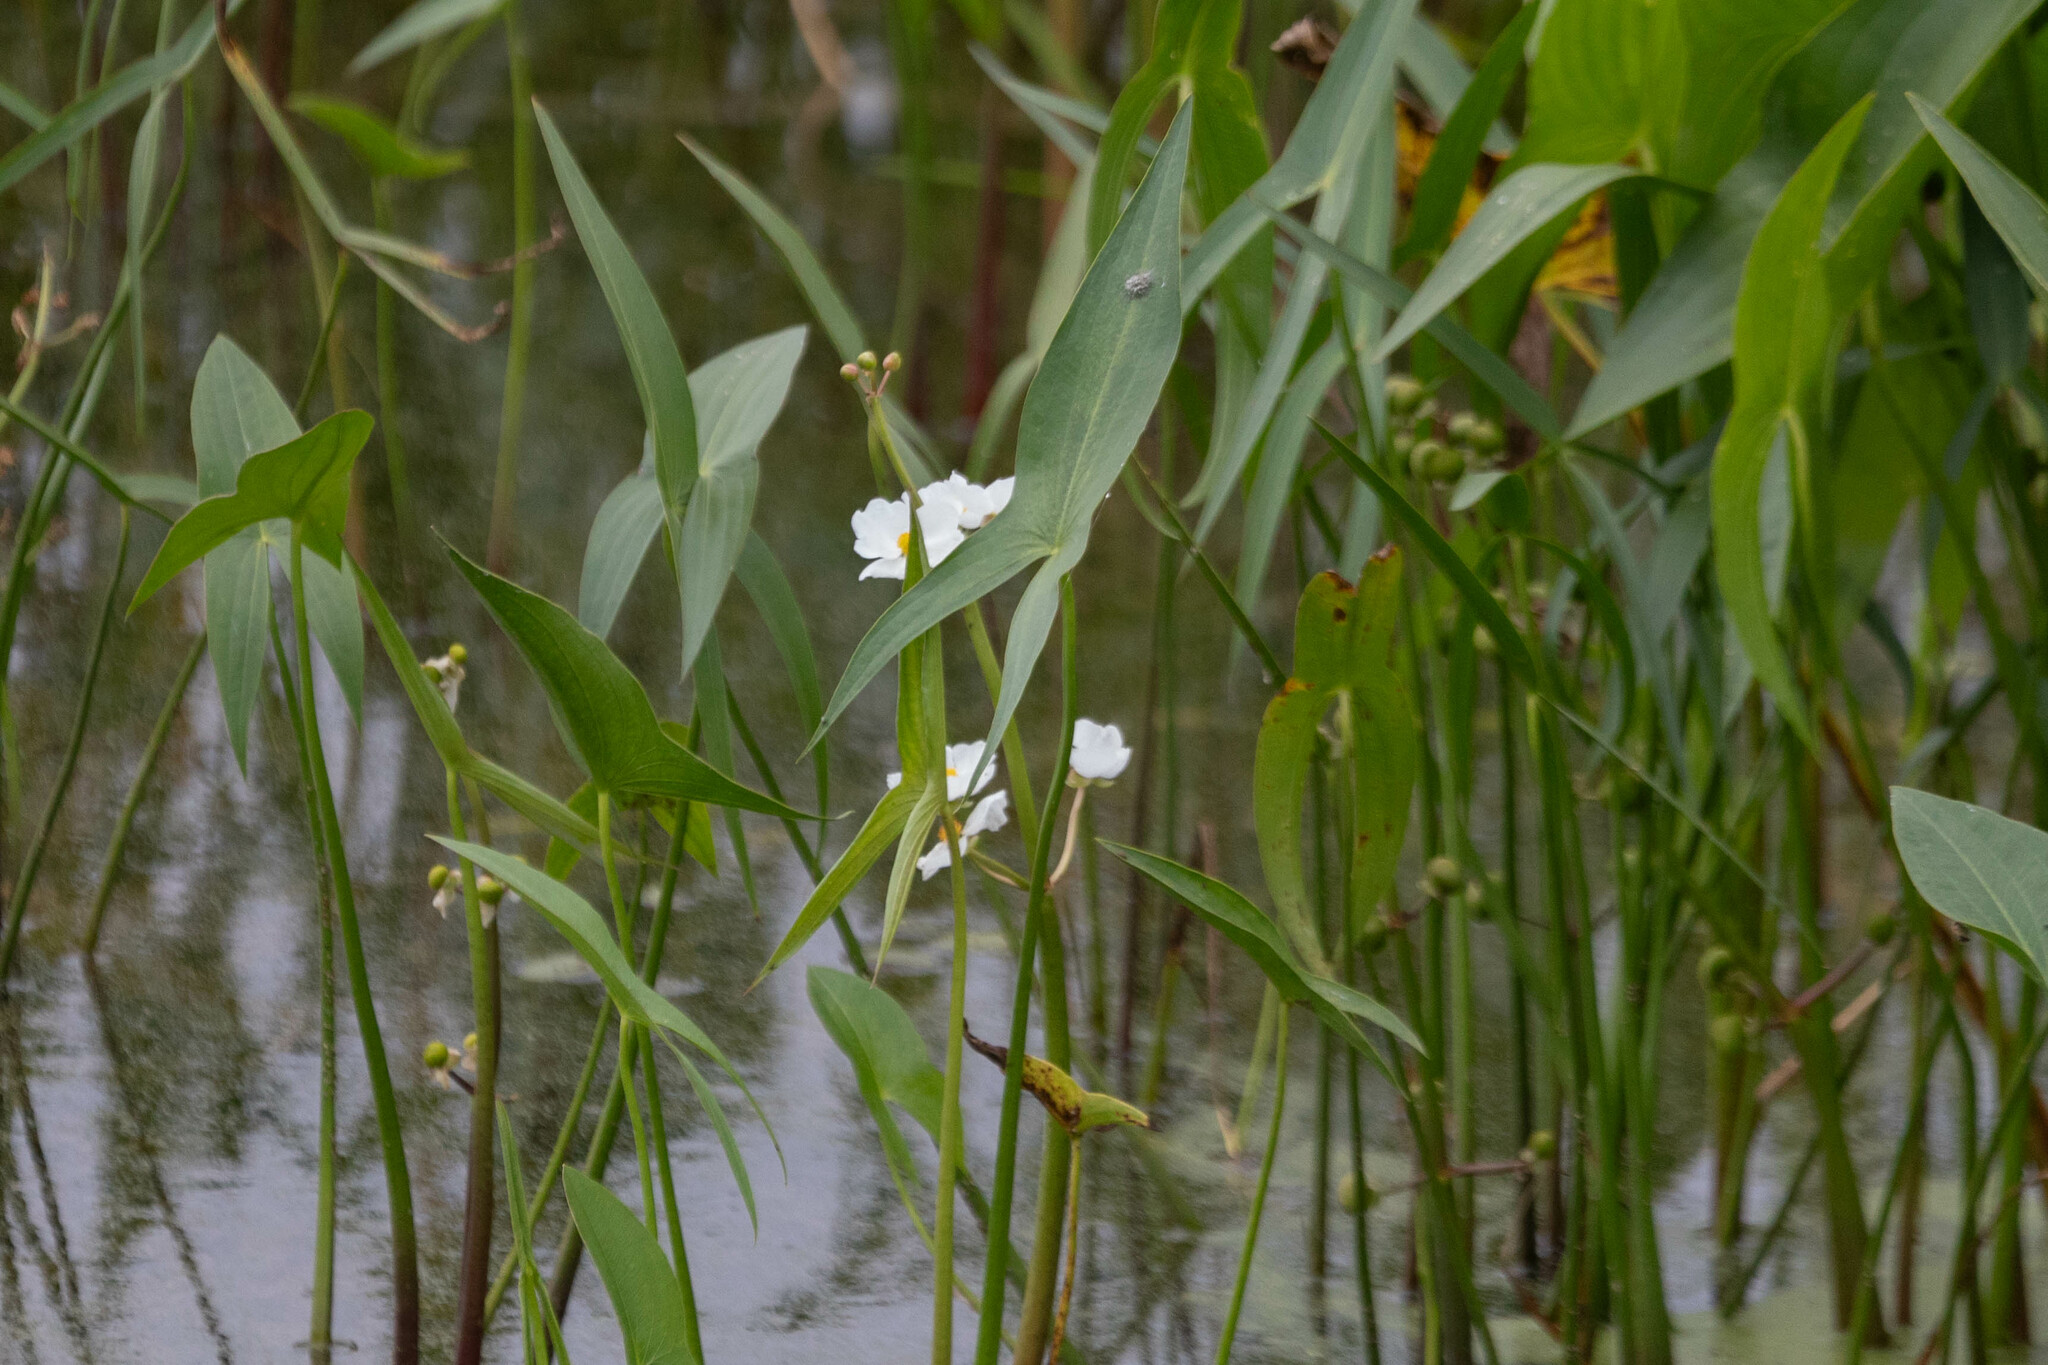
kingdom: Plantae
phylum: Tracheophyta
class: Liliopsida
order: Alismatales
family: Alismataceae
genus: Sagittaria
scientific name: Sagittaria latifolia
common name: Duck-potato
